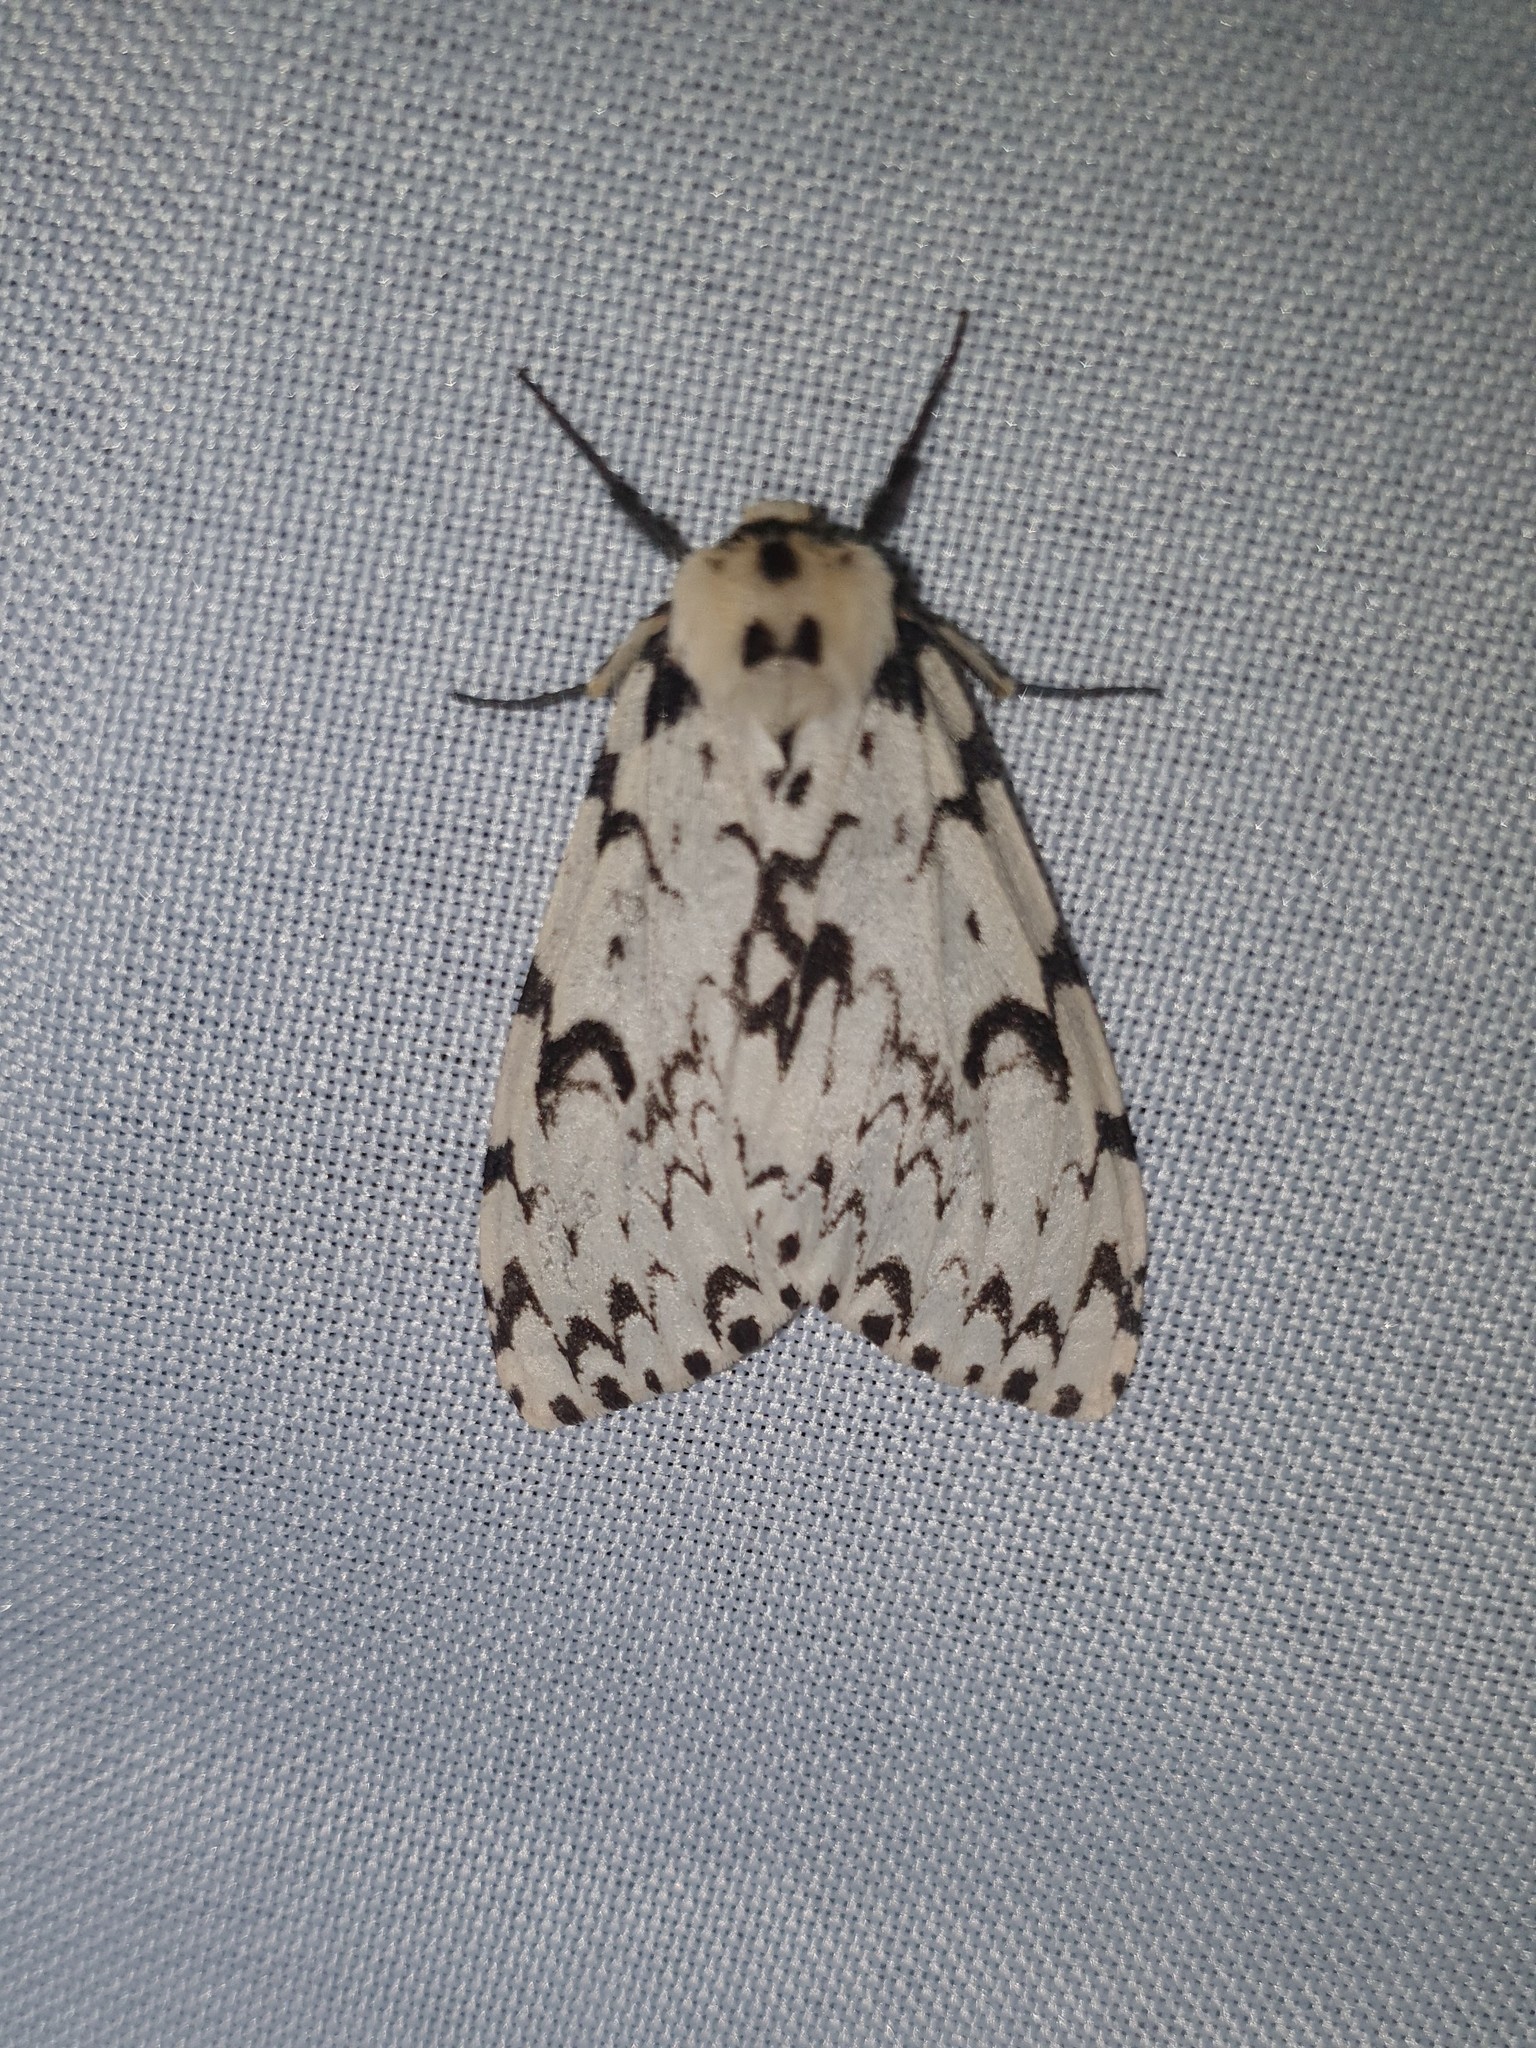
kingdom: Animalia
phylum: Arthropoda
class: Insecta
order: Lepidoptera
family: Erebidae
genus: Lymantria
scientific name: Lymantria monacha
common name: Black arches
